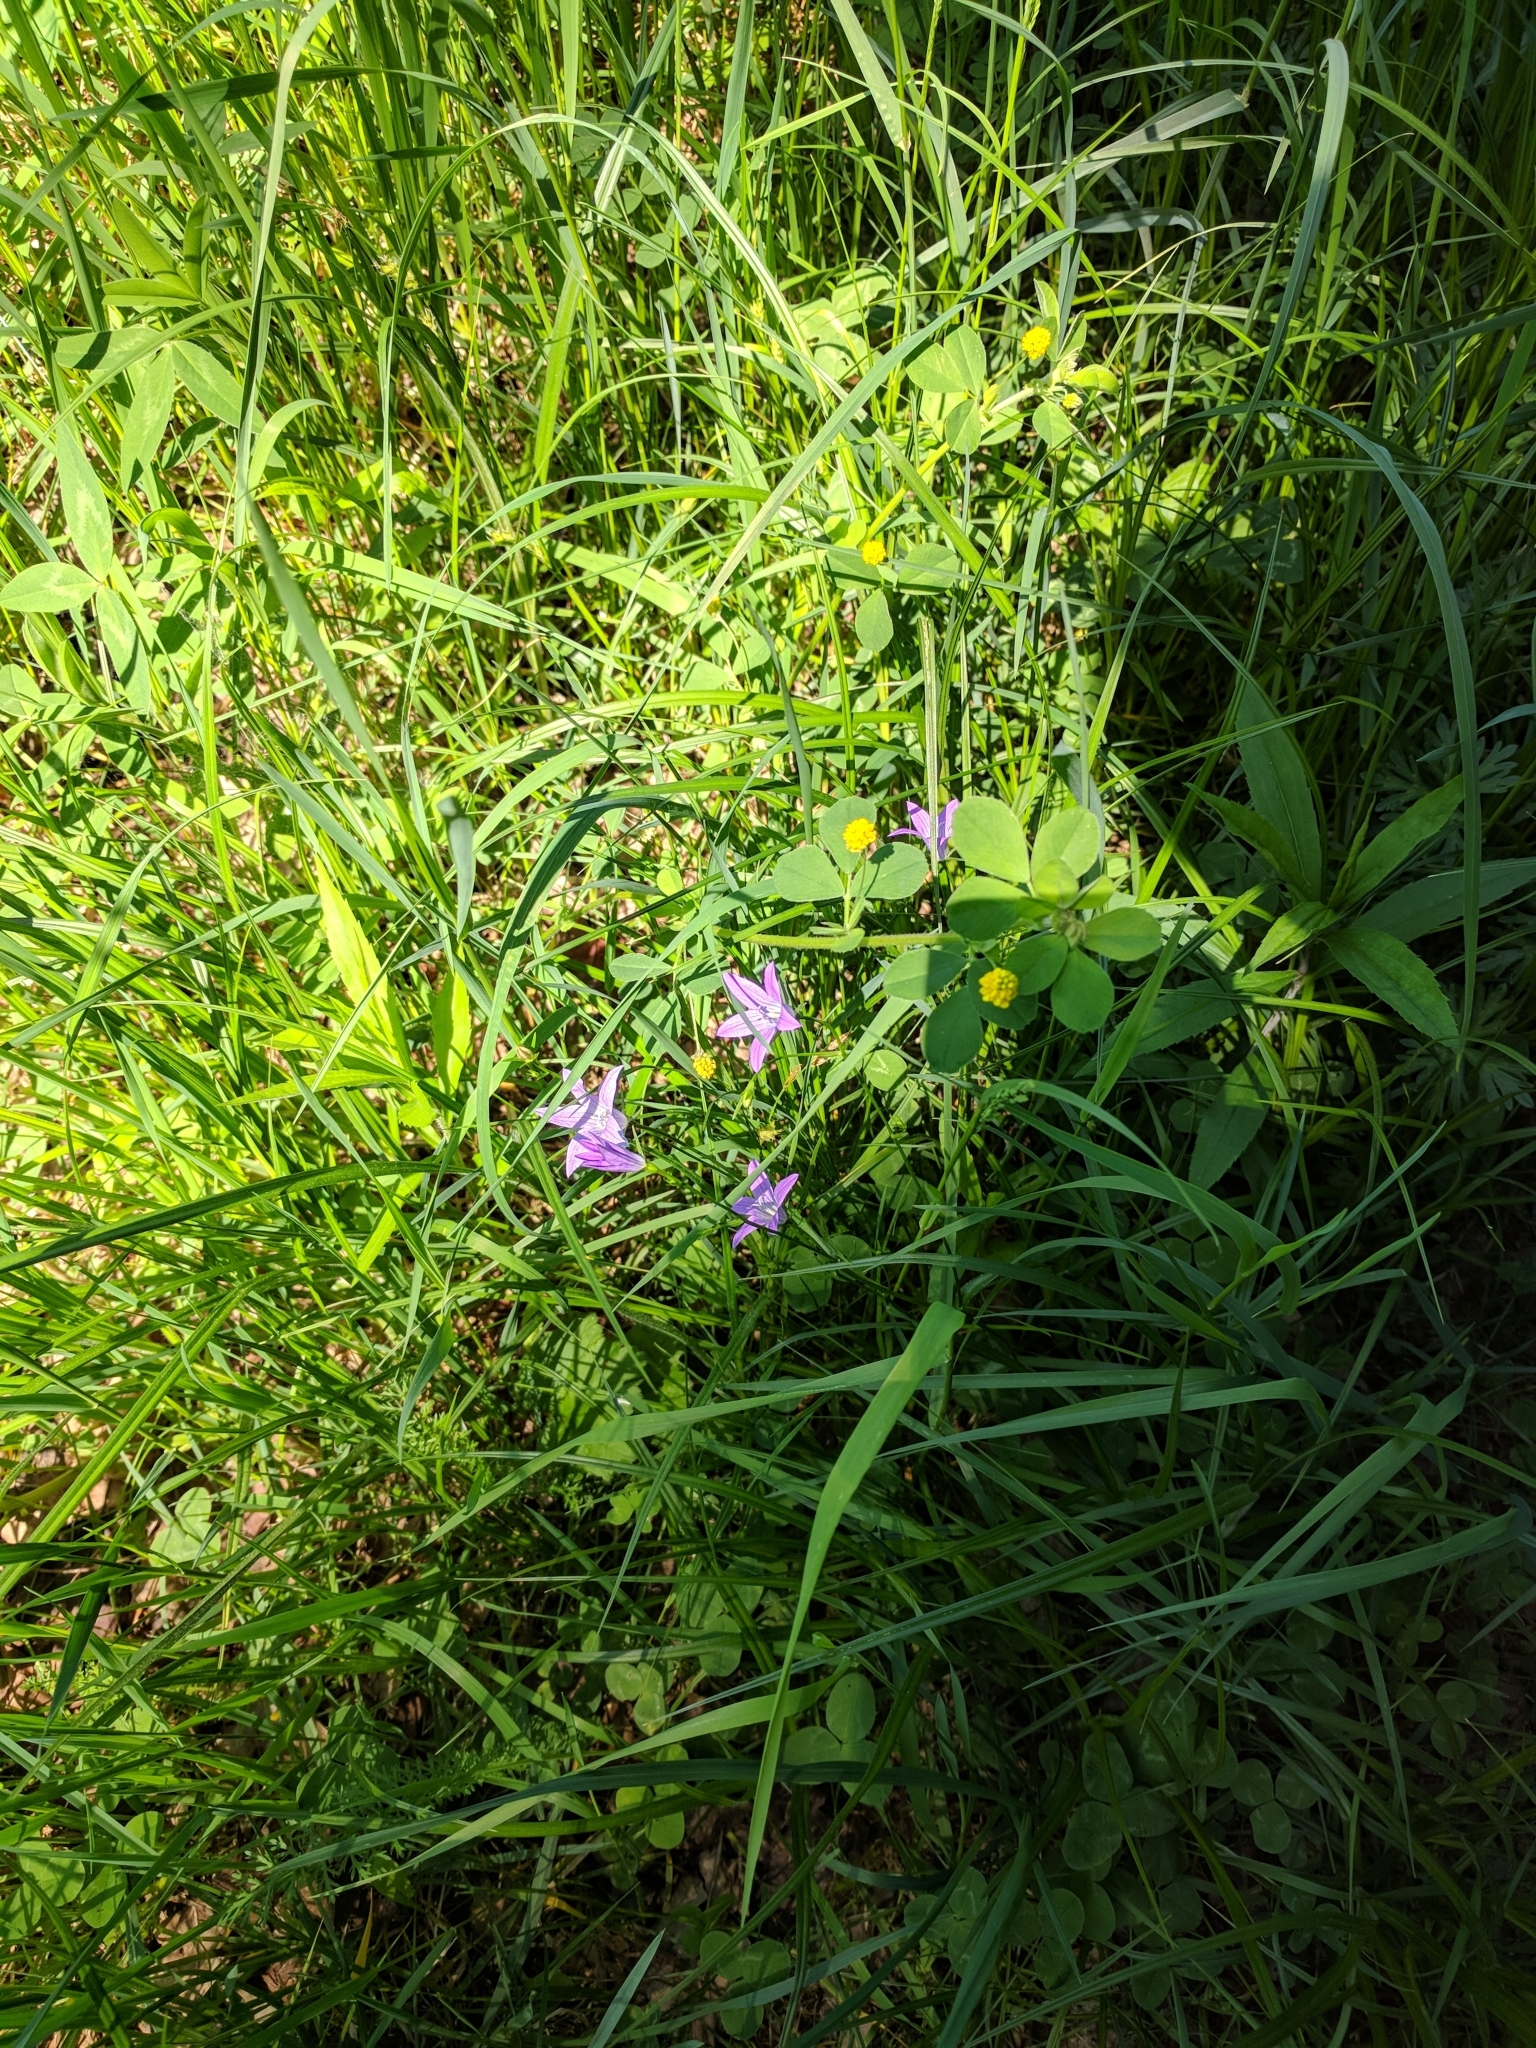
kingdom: Plantae
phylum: Tracheophyta
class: Magnoliopsida
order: Asterales
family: Campanulaceae
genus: Campanula
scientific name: Campanula patula
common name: Spreading bellflower
